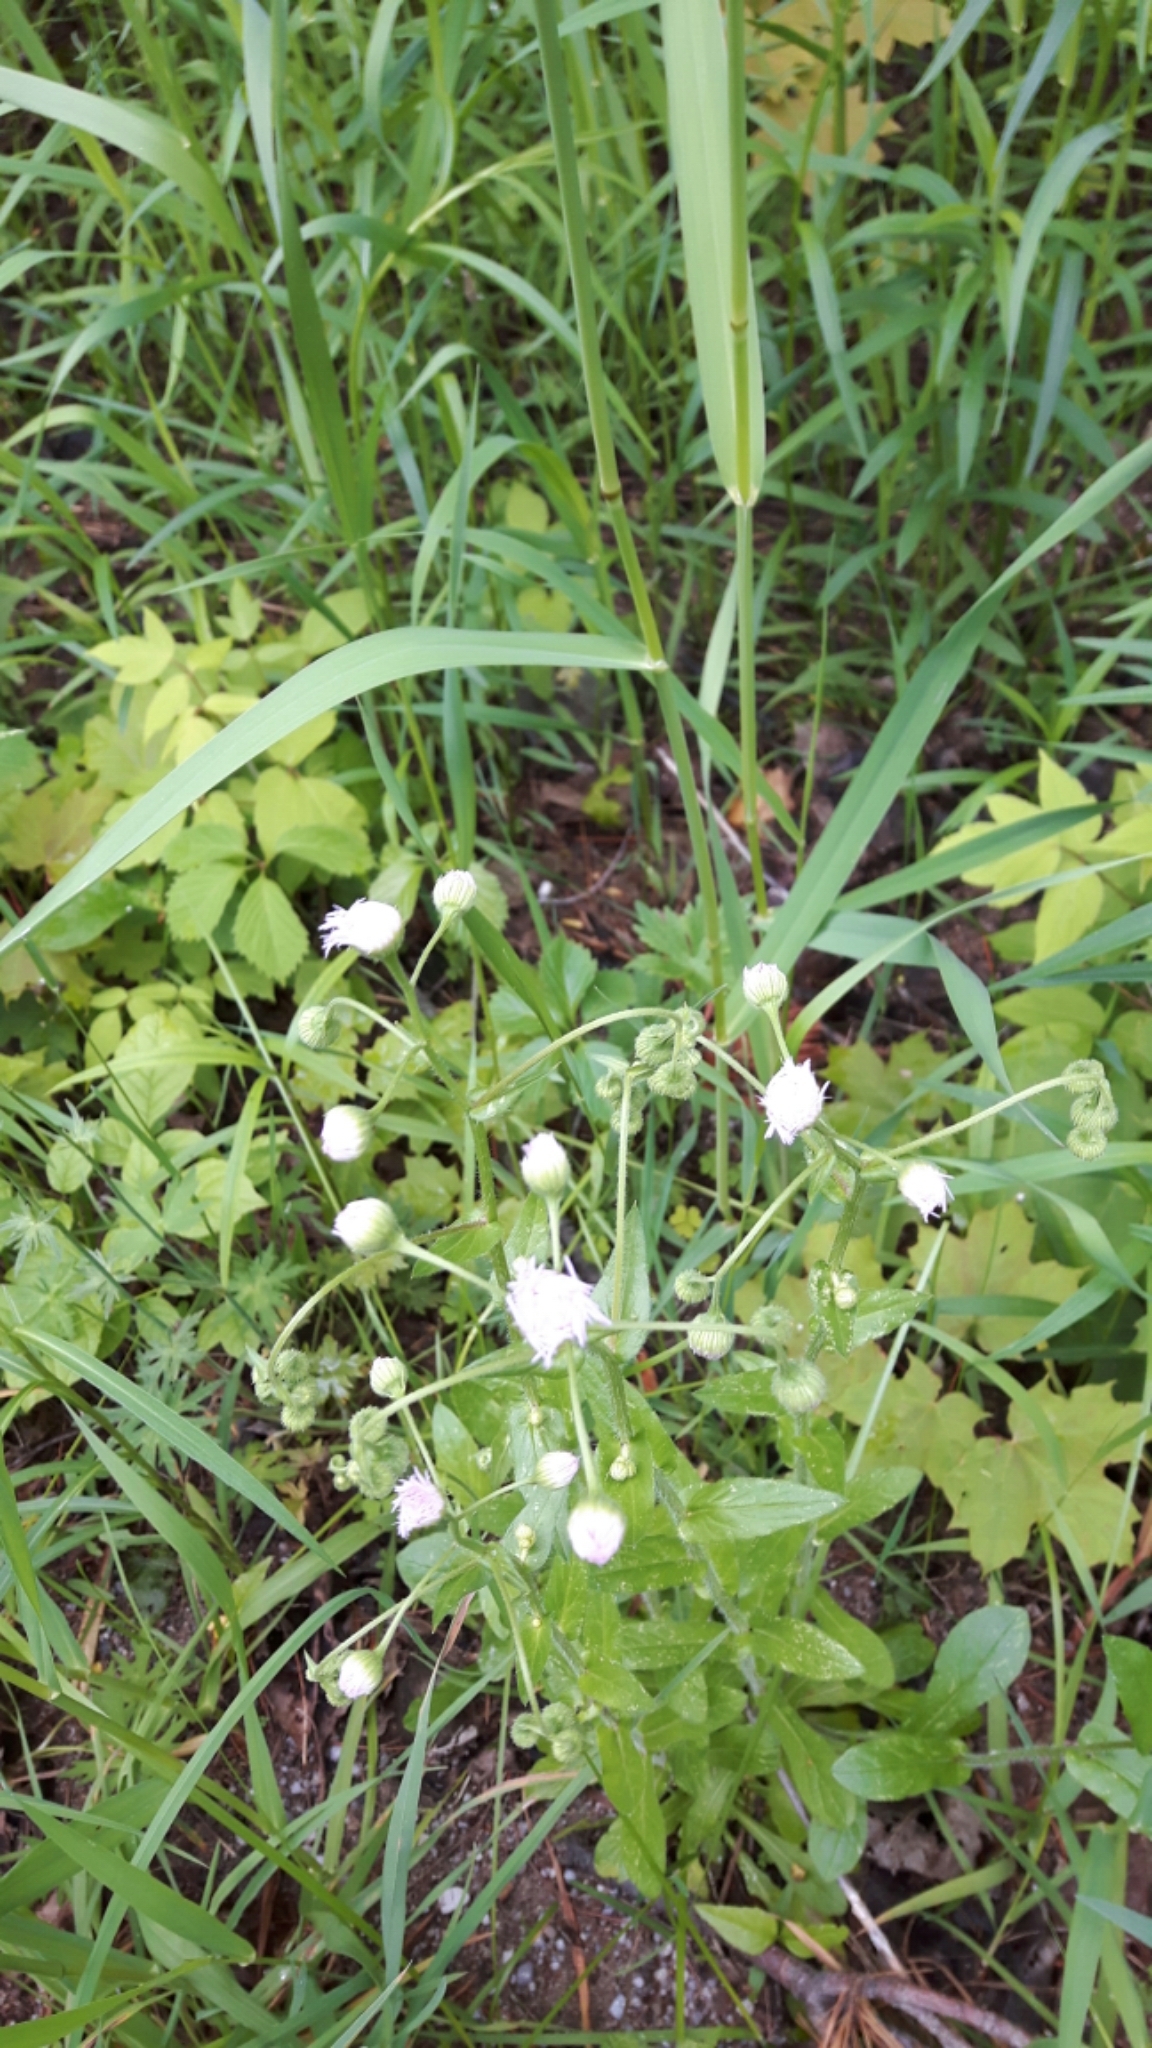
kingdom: Plantae
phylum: Tracheophyta
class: Magnoliopsida
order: Asterales
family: Asteraceae
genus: Erigeron
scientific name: Erigeron philadelphicus
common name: Robin's-plantain
